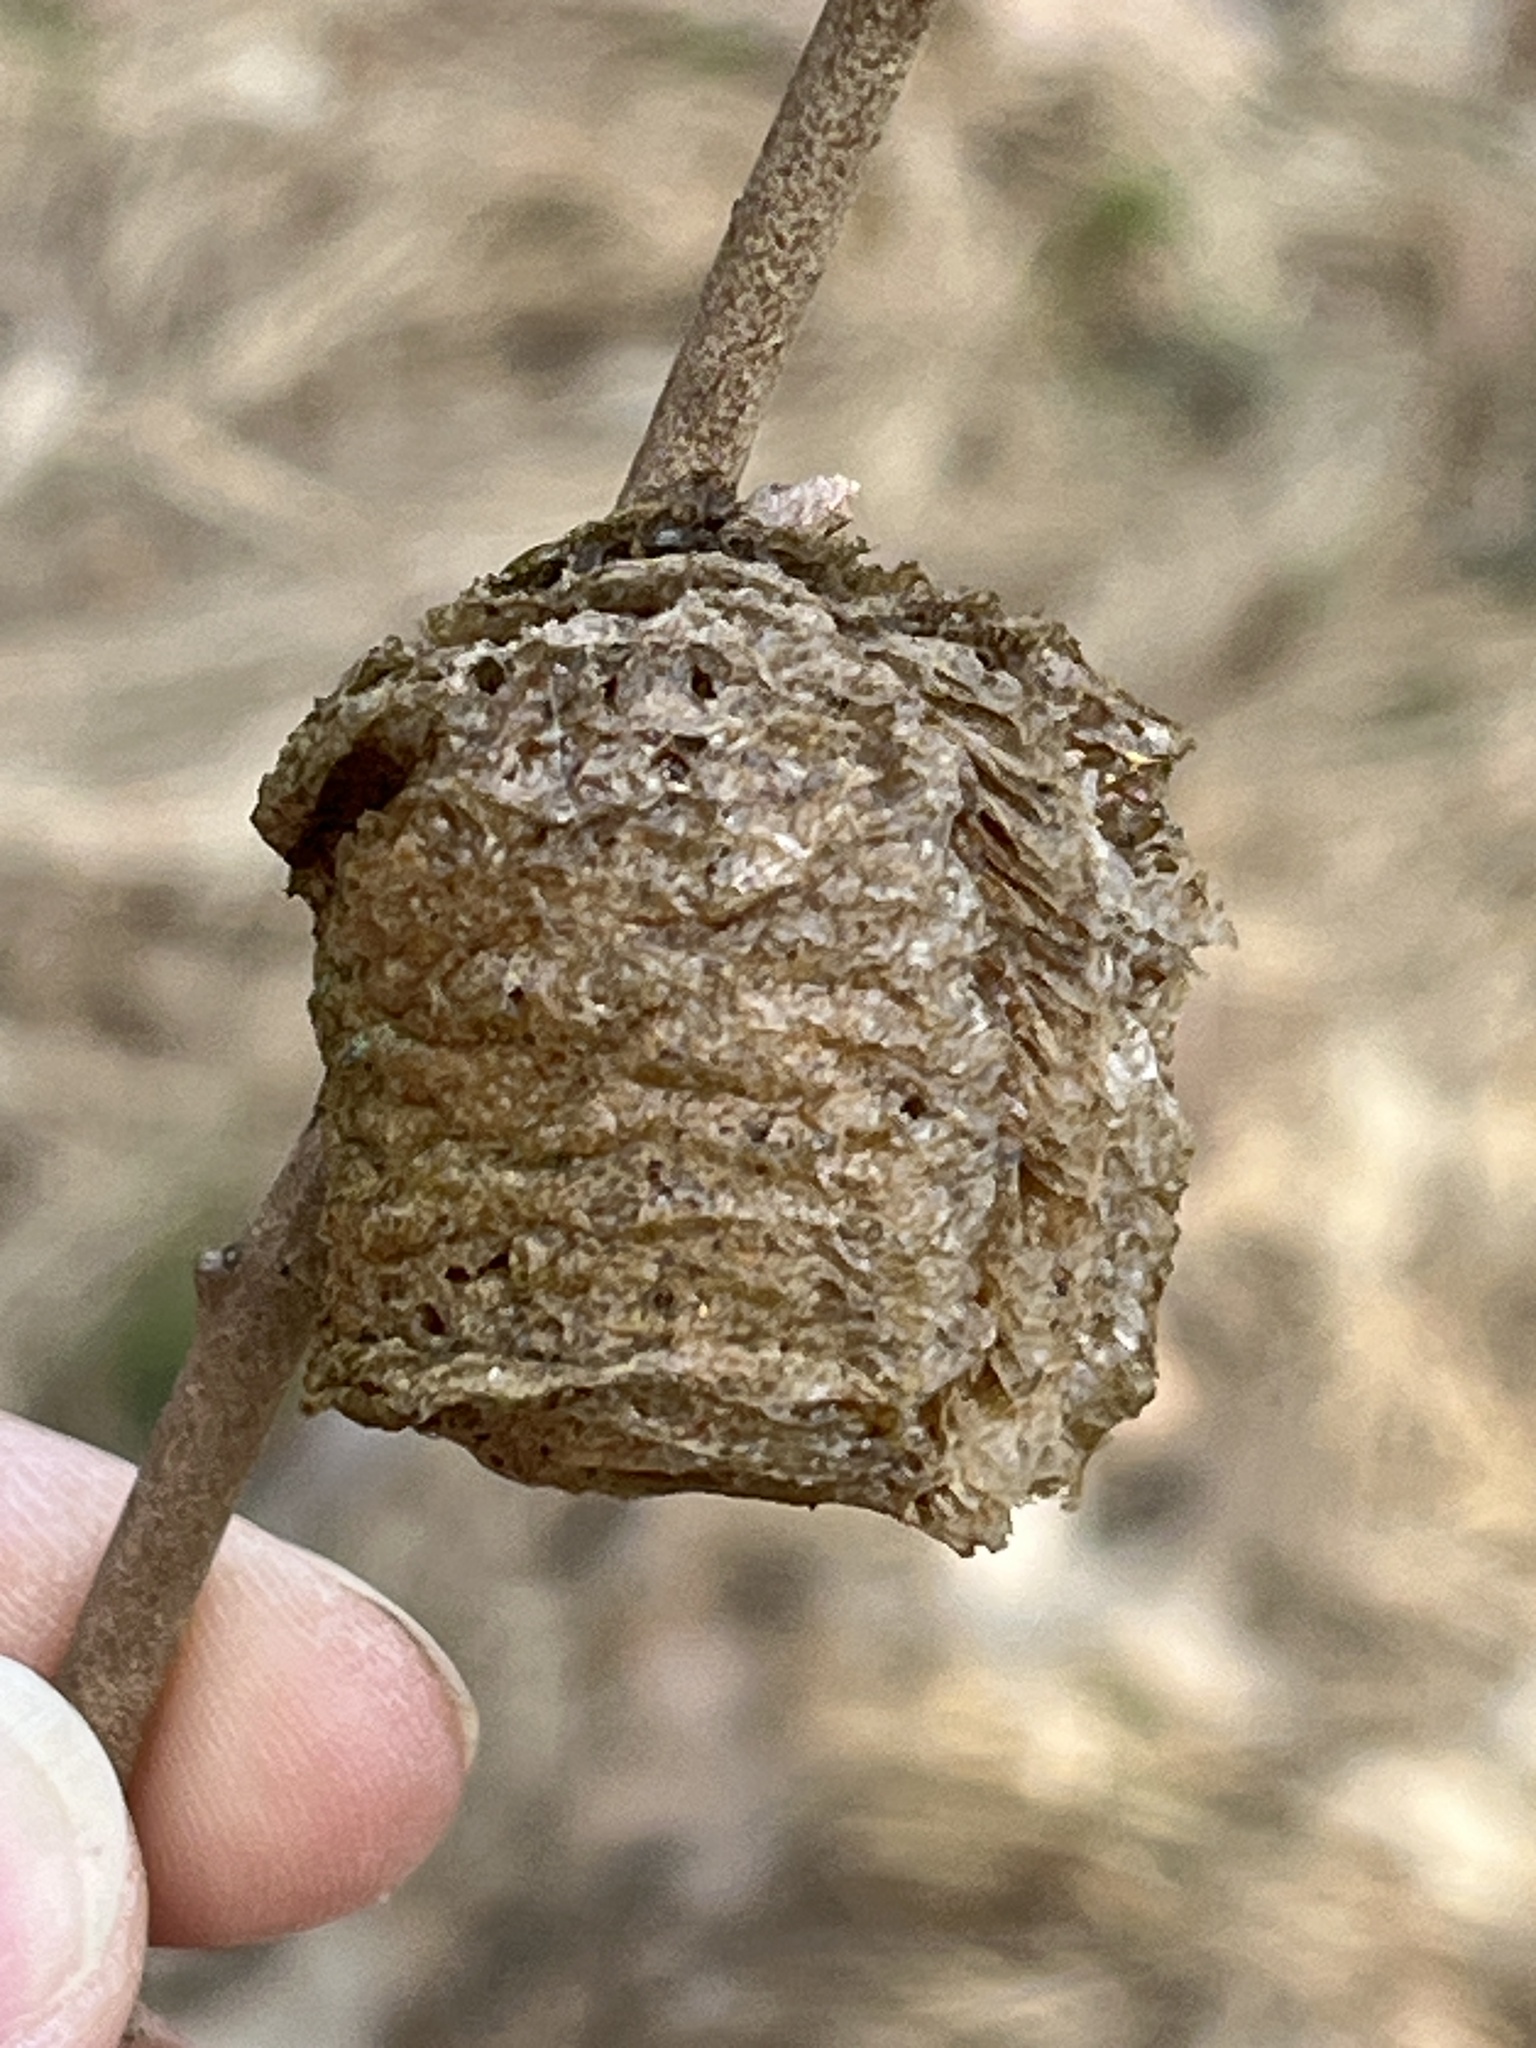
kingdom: Animalia
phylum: Arthropoda
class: Insecta
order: Mantodea
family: Mantidae
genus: Tenodera
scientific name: Tenodera sinensis
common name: Chinese mantis
